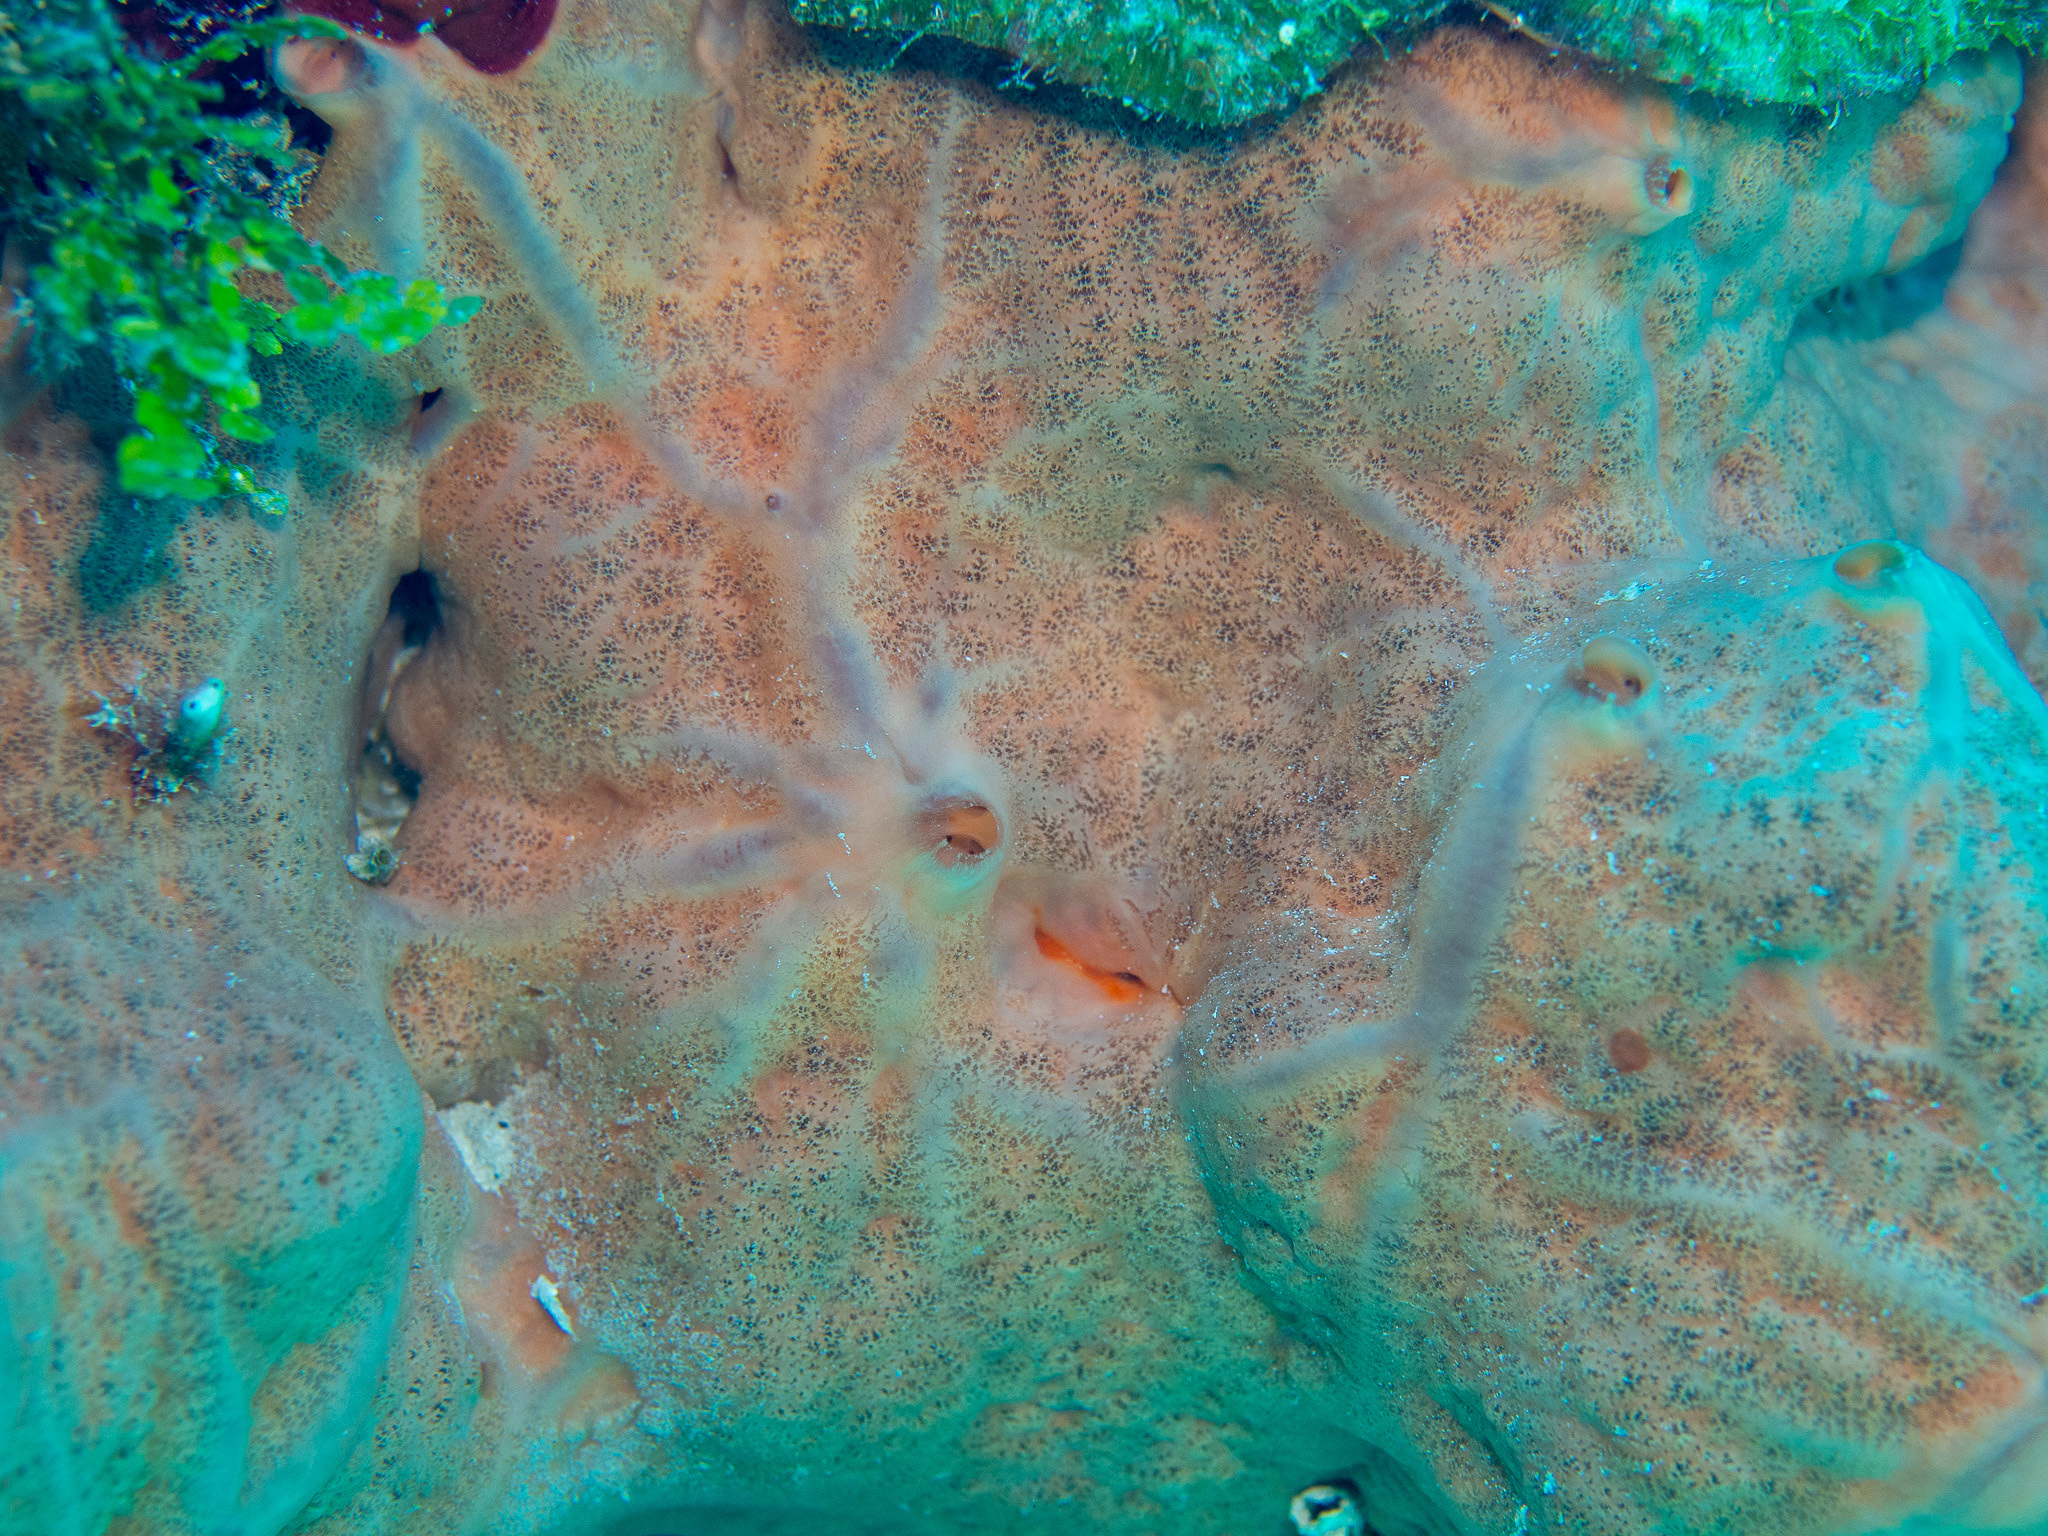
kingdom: Animalia
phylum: Porifera
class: Demospongiae
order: Clionaida
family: Spirastrellidae
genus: Spirastrella
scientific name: Spirastrella hartmani
